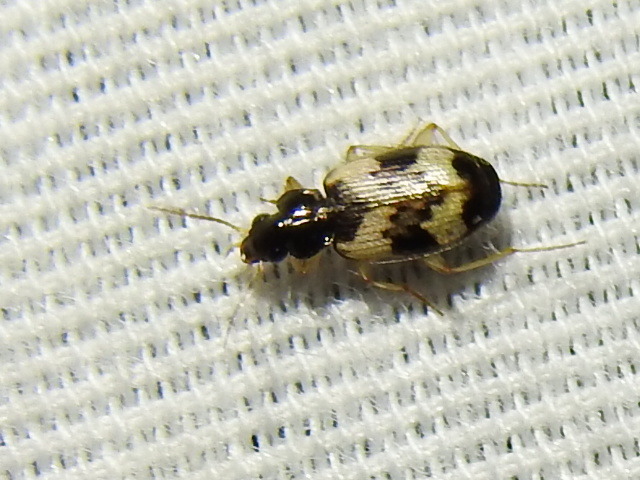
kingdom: Animalia
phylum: Arthropoda
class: Insecta
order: Coleoptera
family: Carabidae
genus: Tetragonoderus
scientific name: Tetragonoderus fasciatus
